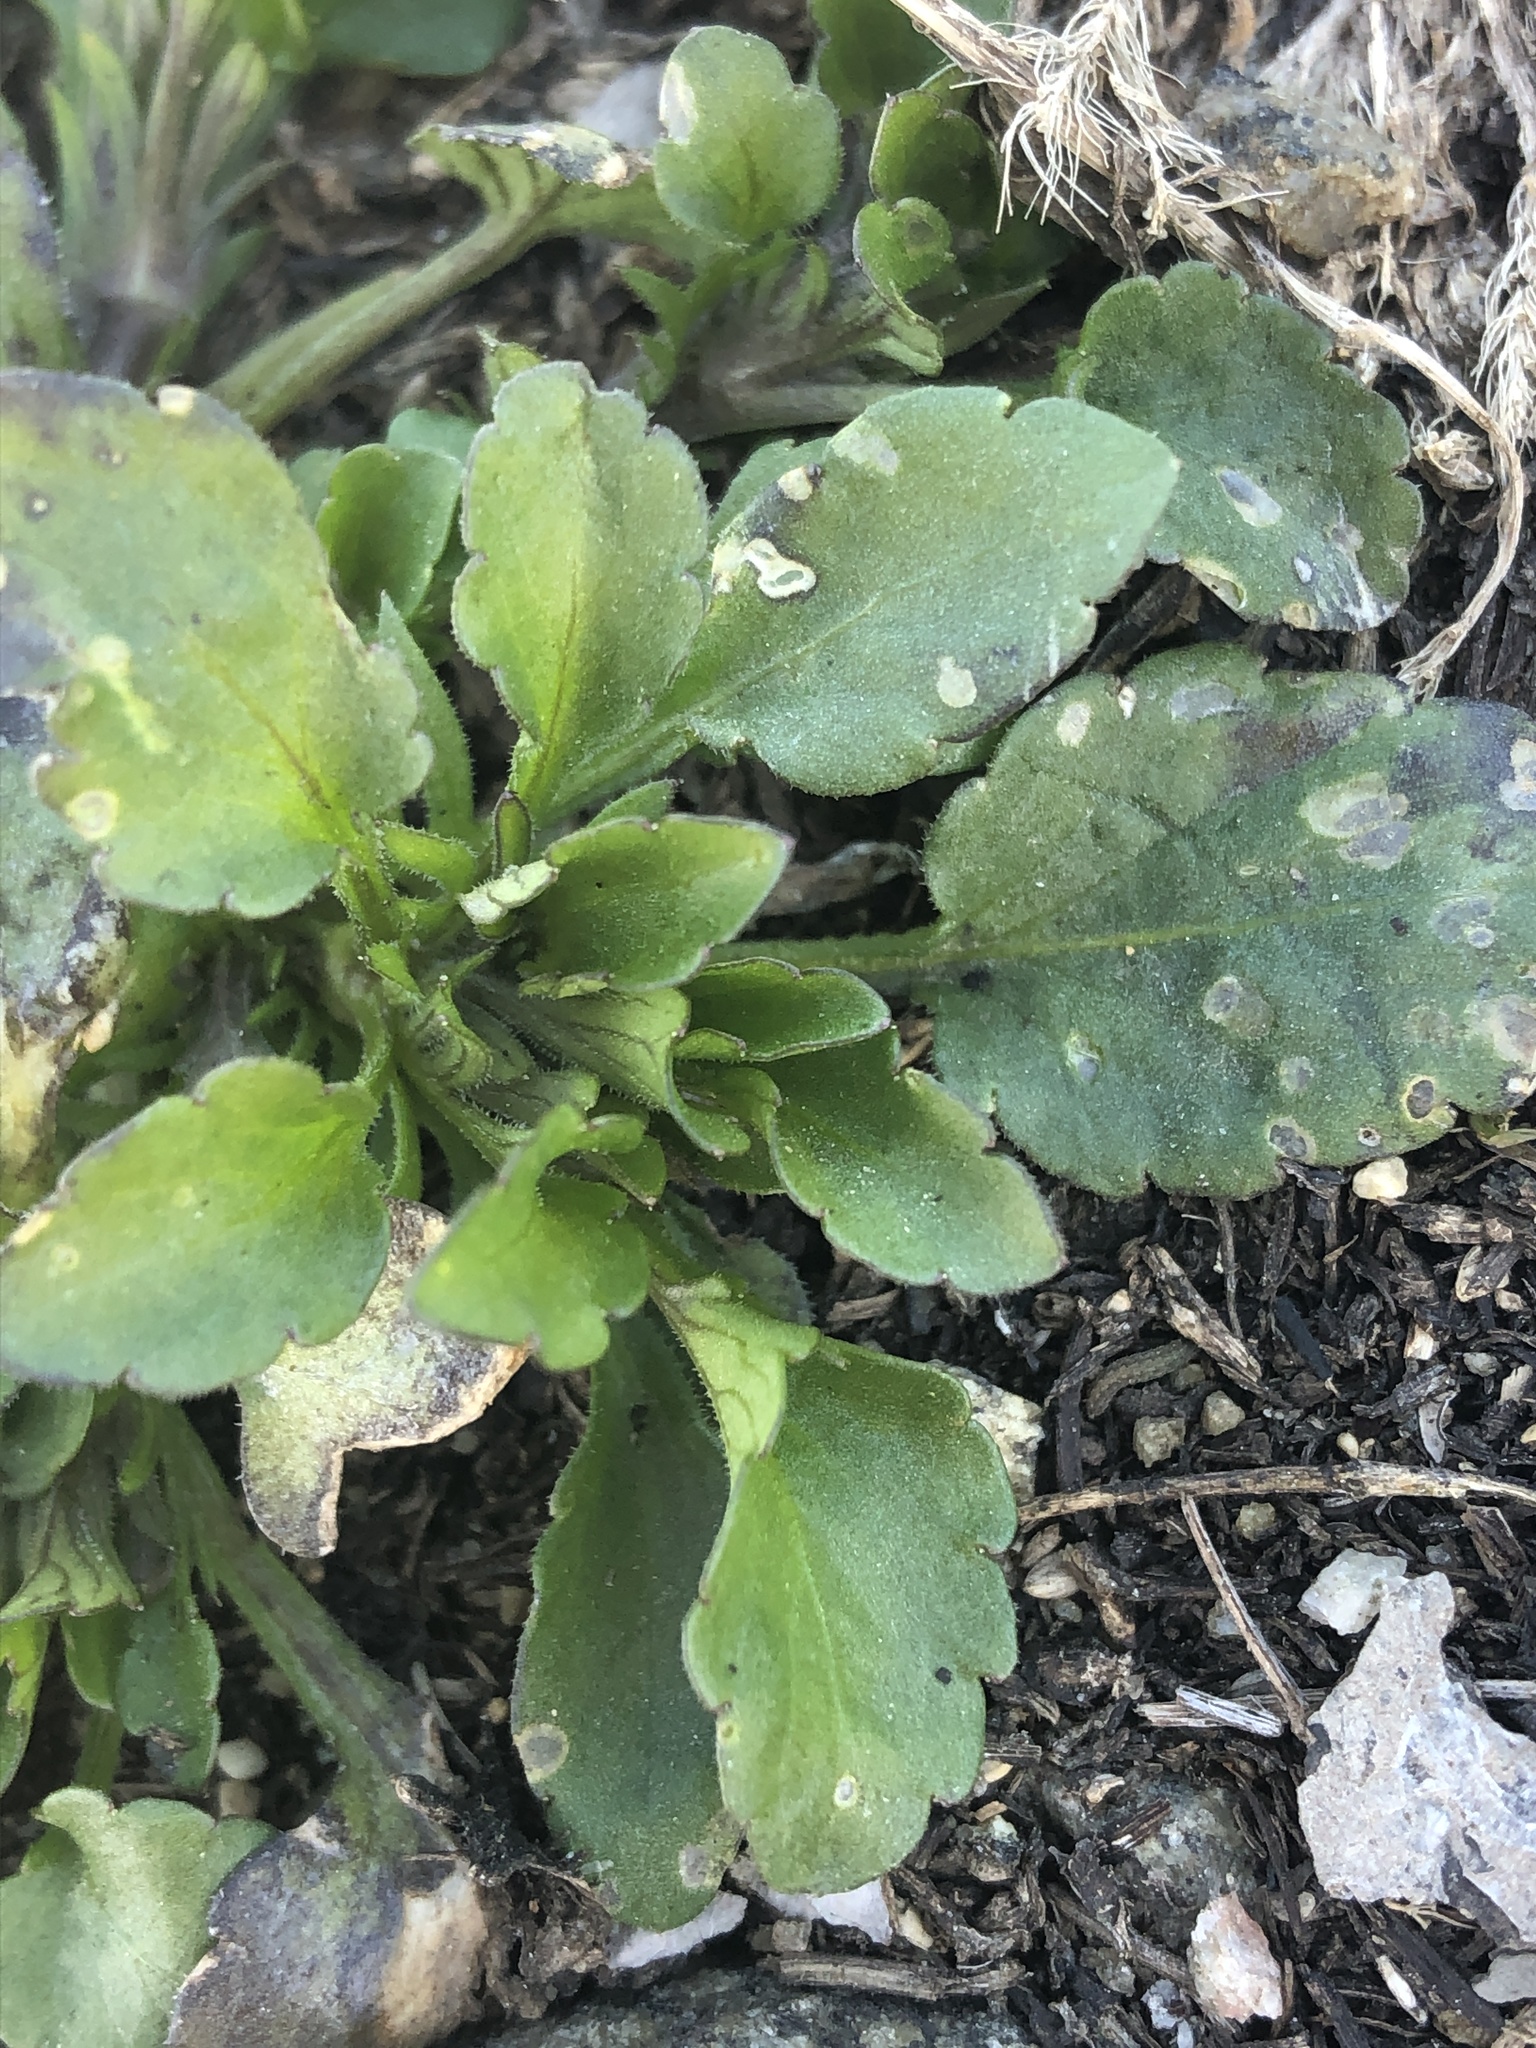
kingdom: Plantae
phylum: Tracheophyta
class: Magnoliopsida
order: Asterales
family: Asteraceae
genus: Erigeron
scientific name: Erigeron
